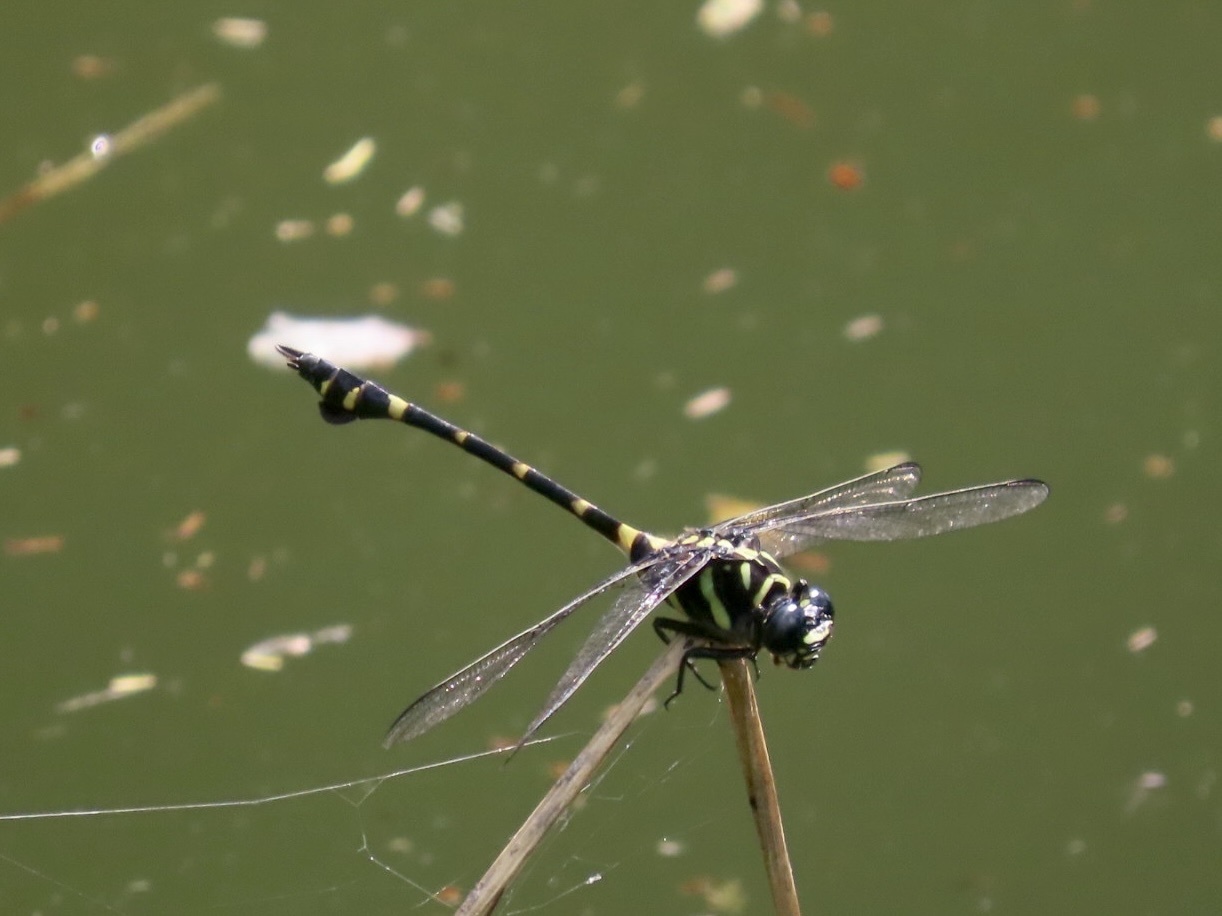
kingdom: Animalia
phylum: Arthropoda
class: Insecta
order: Odonata
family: Gomphidae
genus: Ictinogomphus
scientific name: Ictinogomphus decoratus
